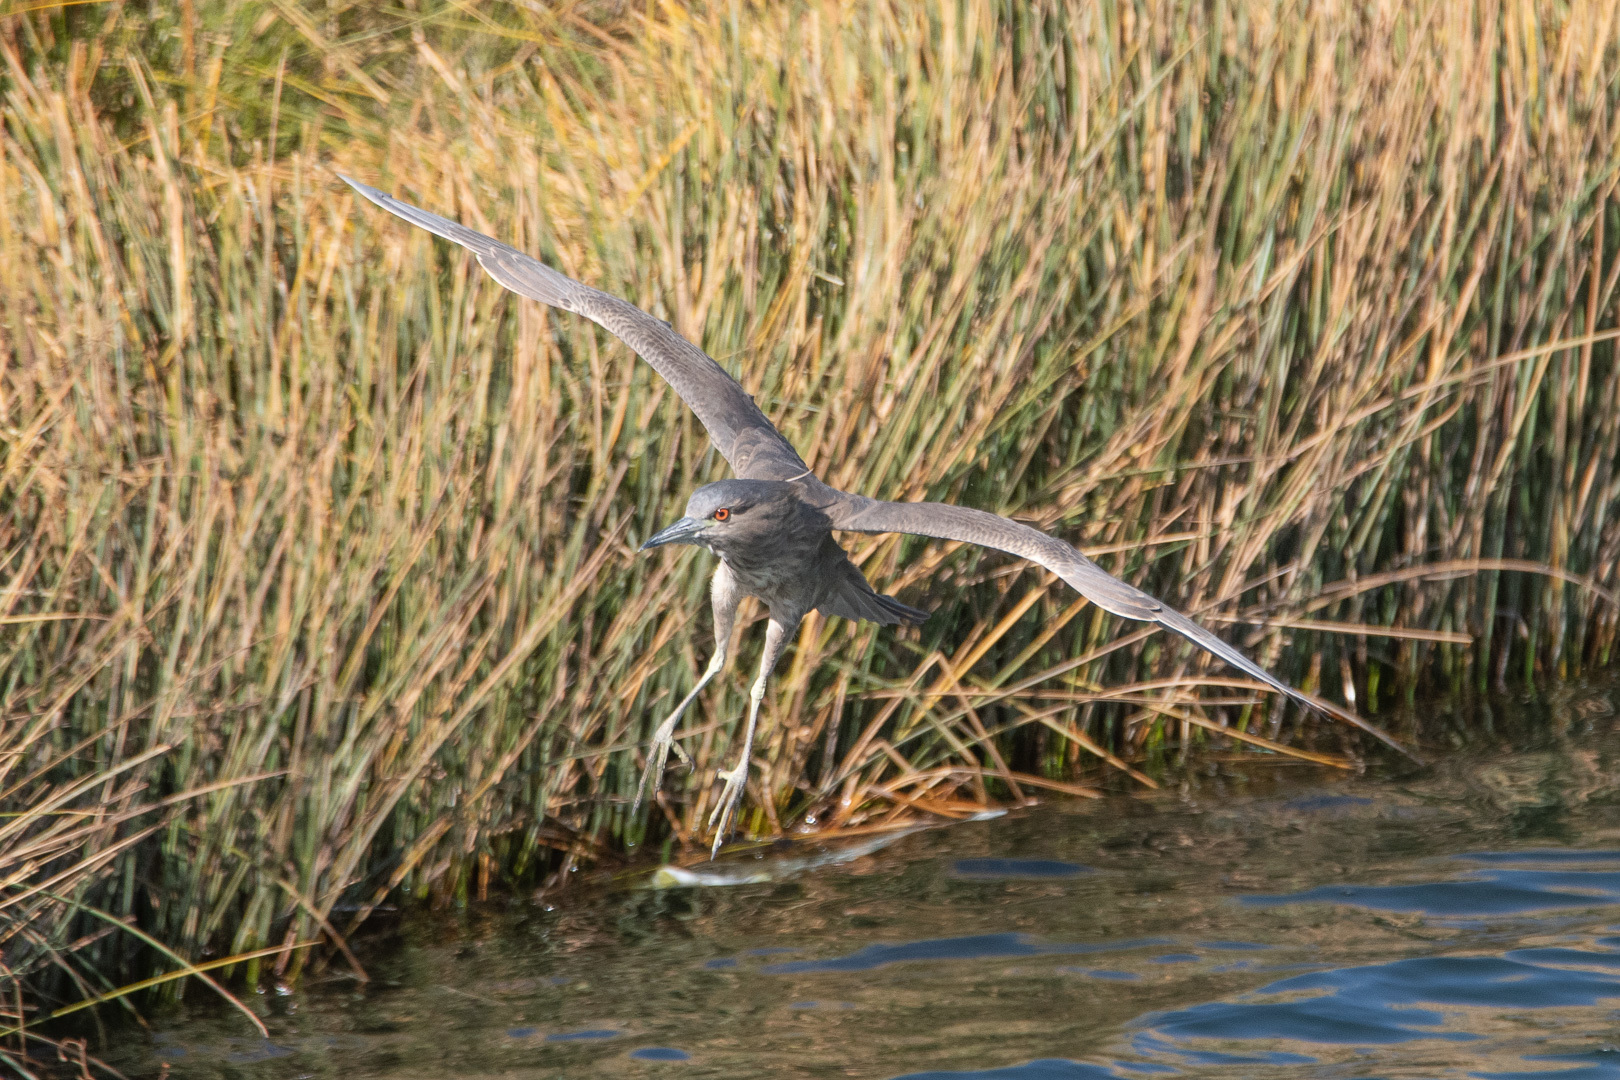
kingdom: Animalia
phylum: Chordata
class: Aves
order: Pelecaniformes
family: Ardeidae
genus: Nycticorax
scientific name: Nycticorax nycticorax
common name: Black-crowned night heron
